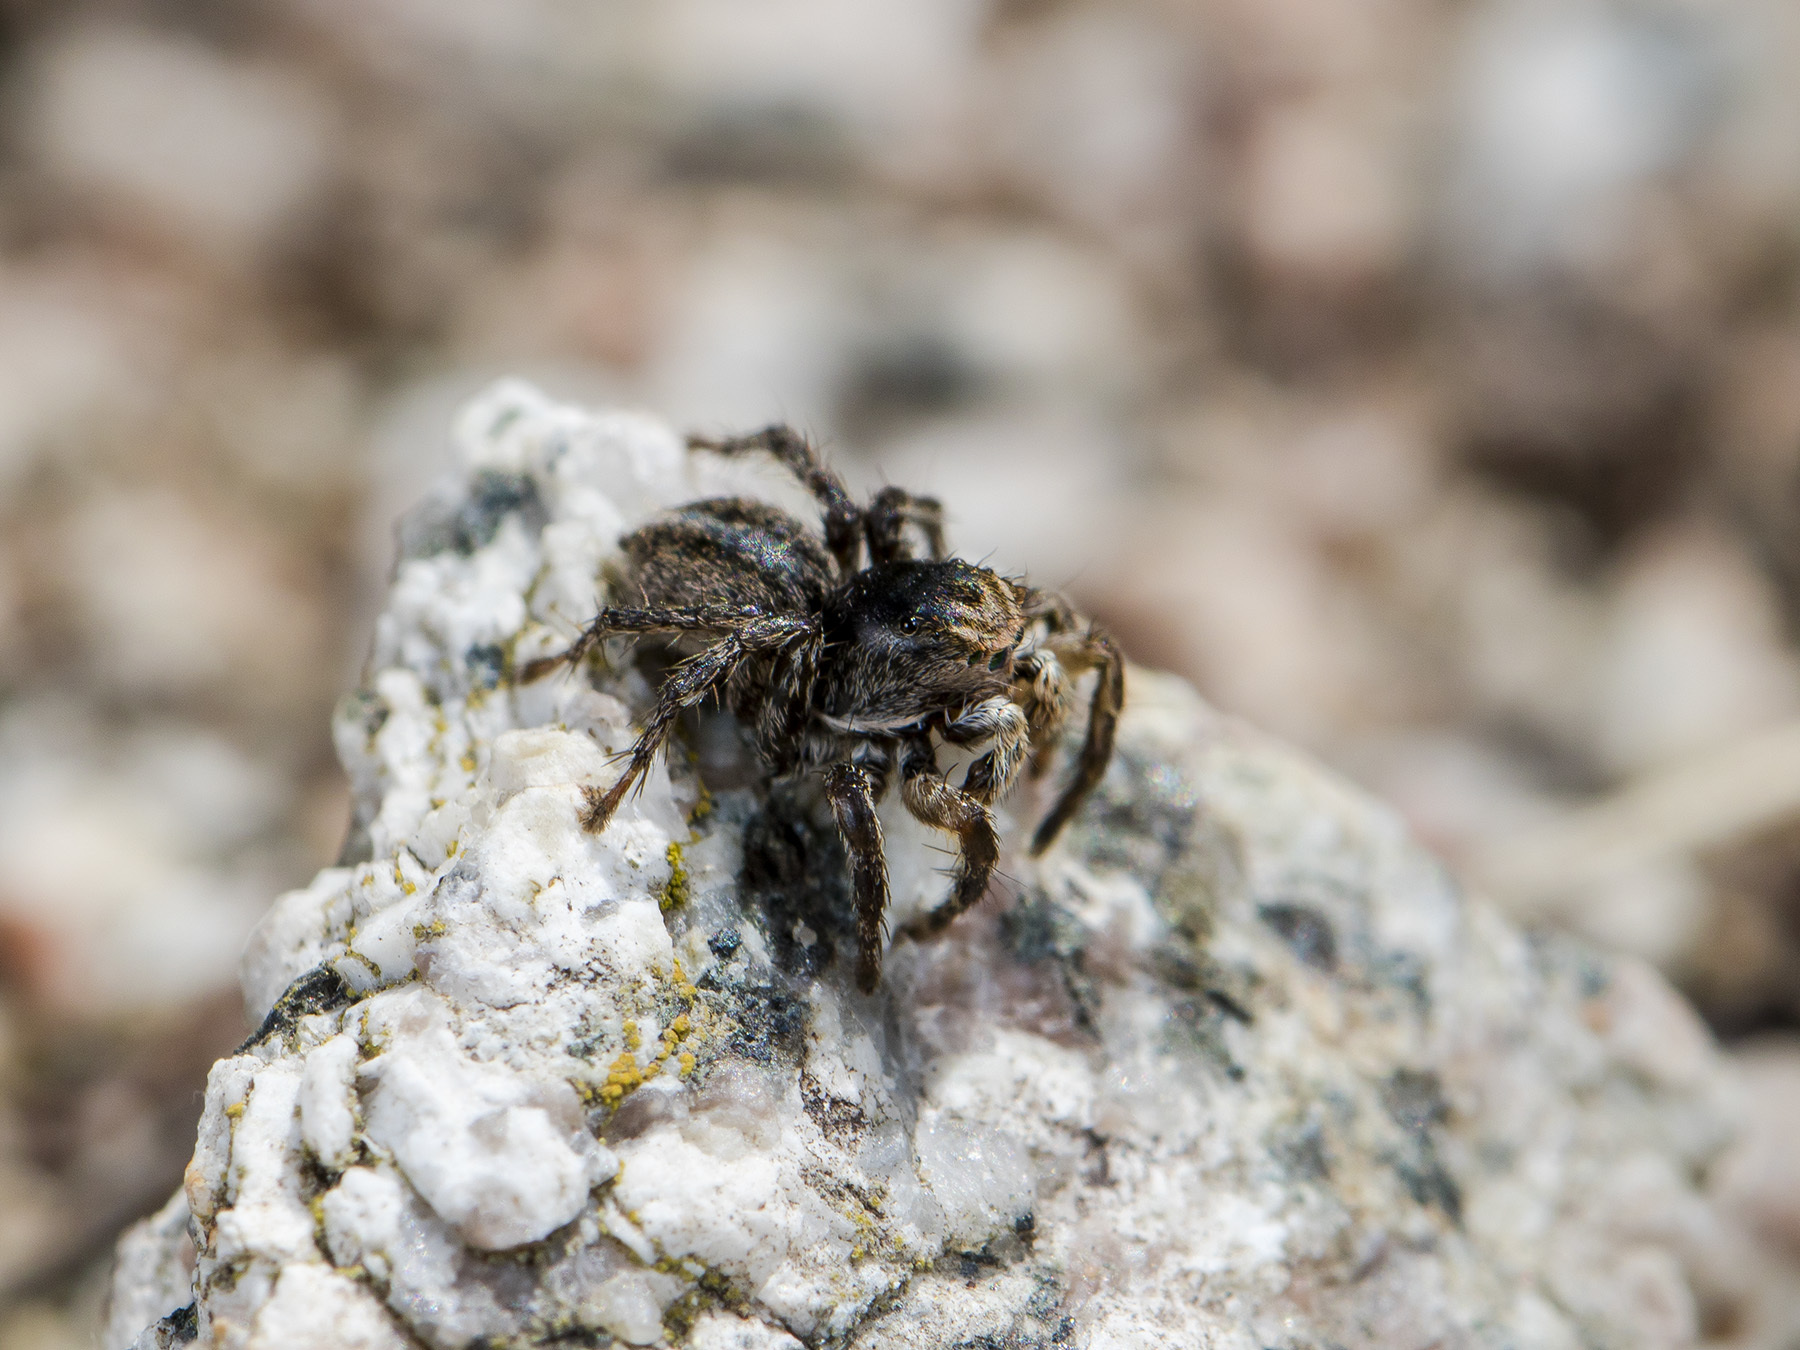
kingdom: Animalia
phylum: Arthropoda
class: Arachnida
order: Araneae
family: Salticidae
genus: Aelurillus
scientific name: Aelurillus v-insignitus
